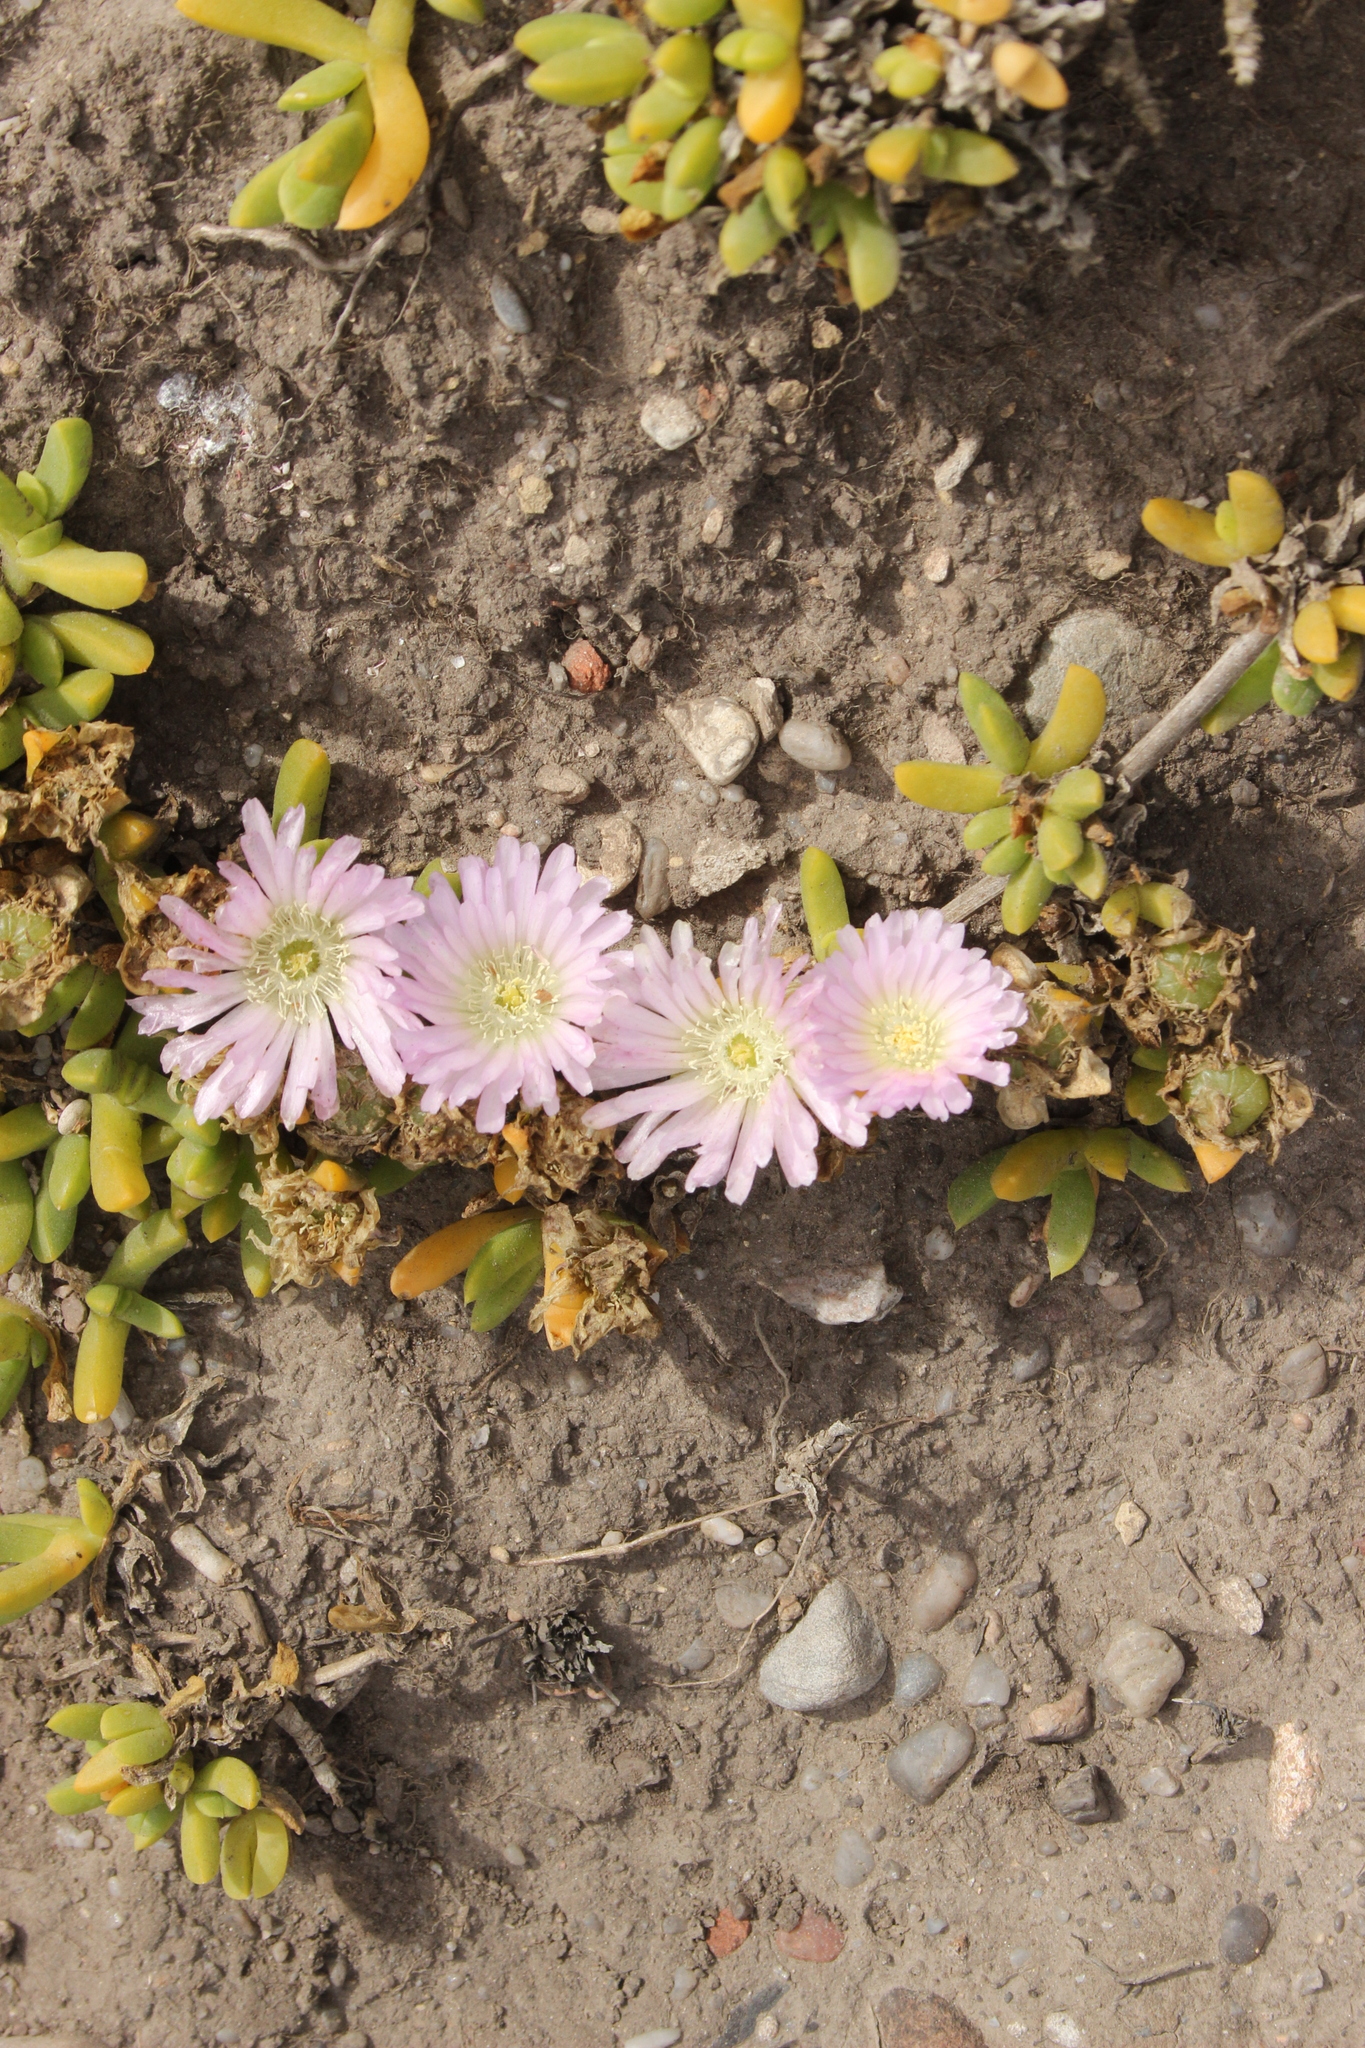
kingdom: Plantae
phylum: Tracheophyta
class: Magnoliopsida
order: Caryophyllales
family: Aizoaceae
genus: Disphyma
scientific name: Disphyma australe
